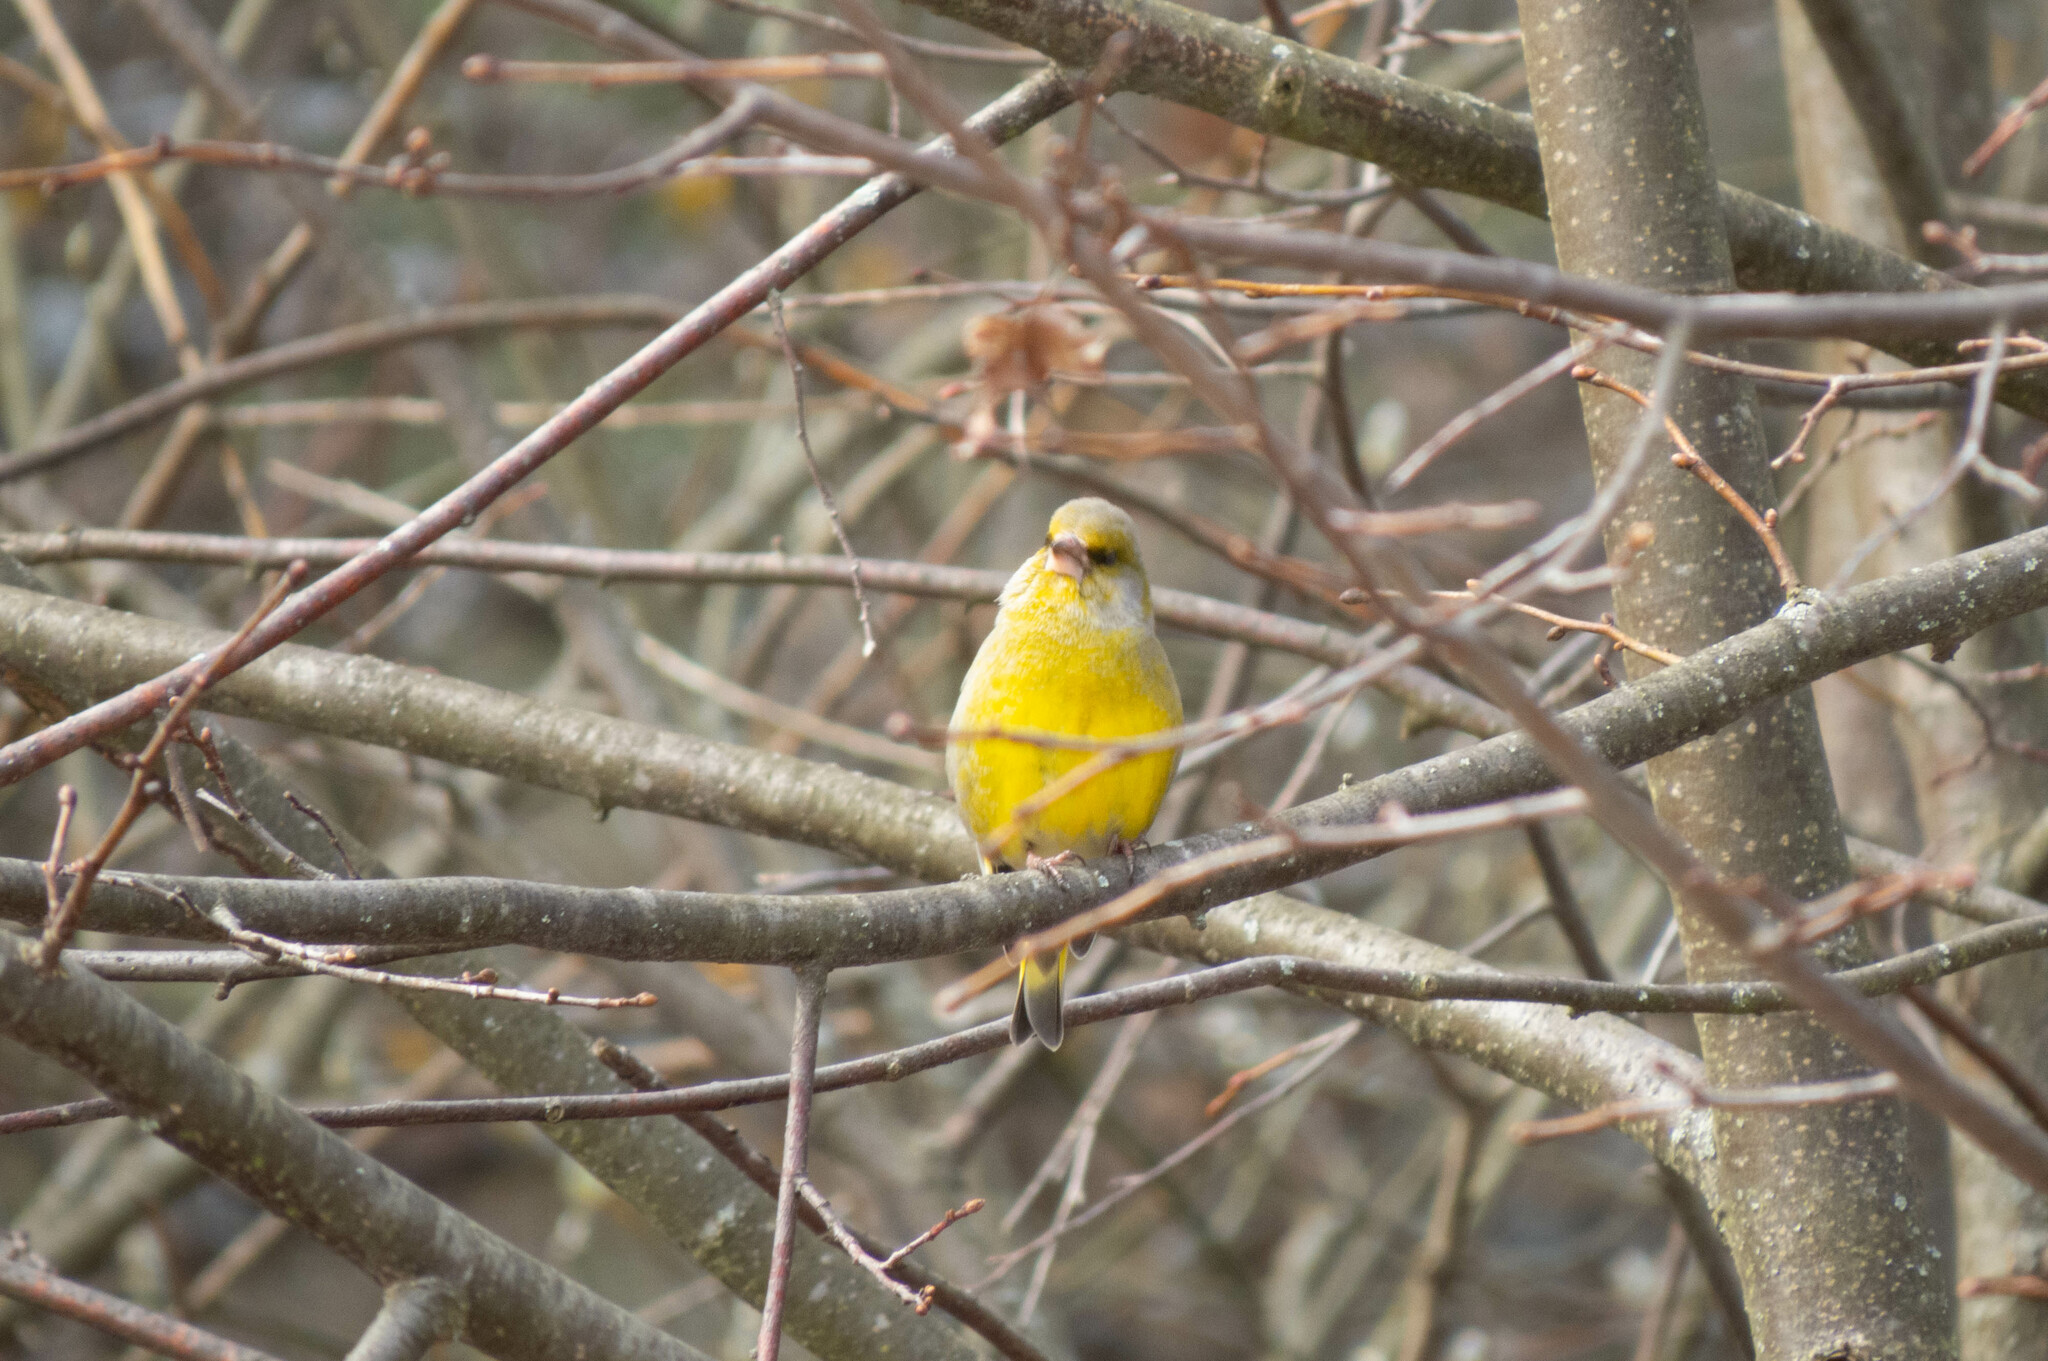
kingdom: Plantae
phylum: Tracheophyta
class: Liliopsida
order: Poales
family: Poaceae
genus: Chloris
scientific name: Chloris chloris
